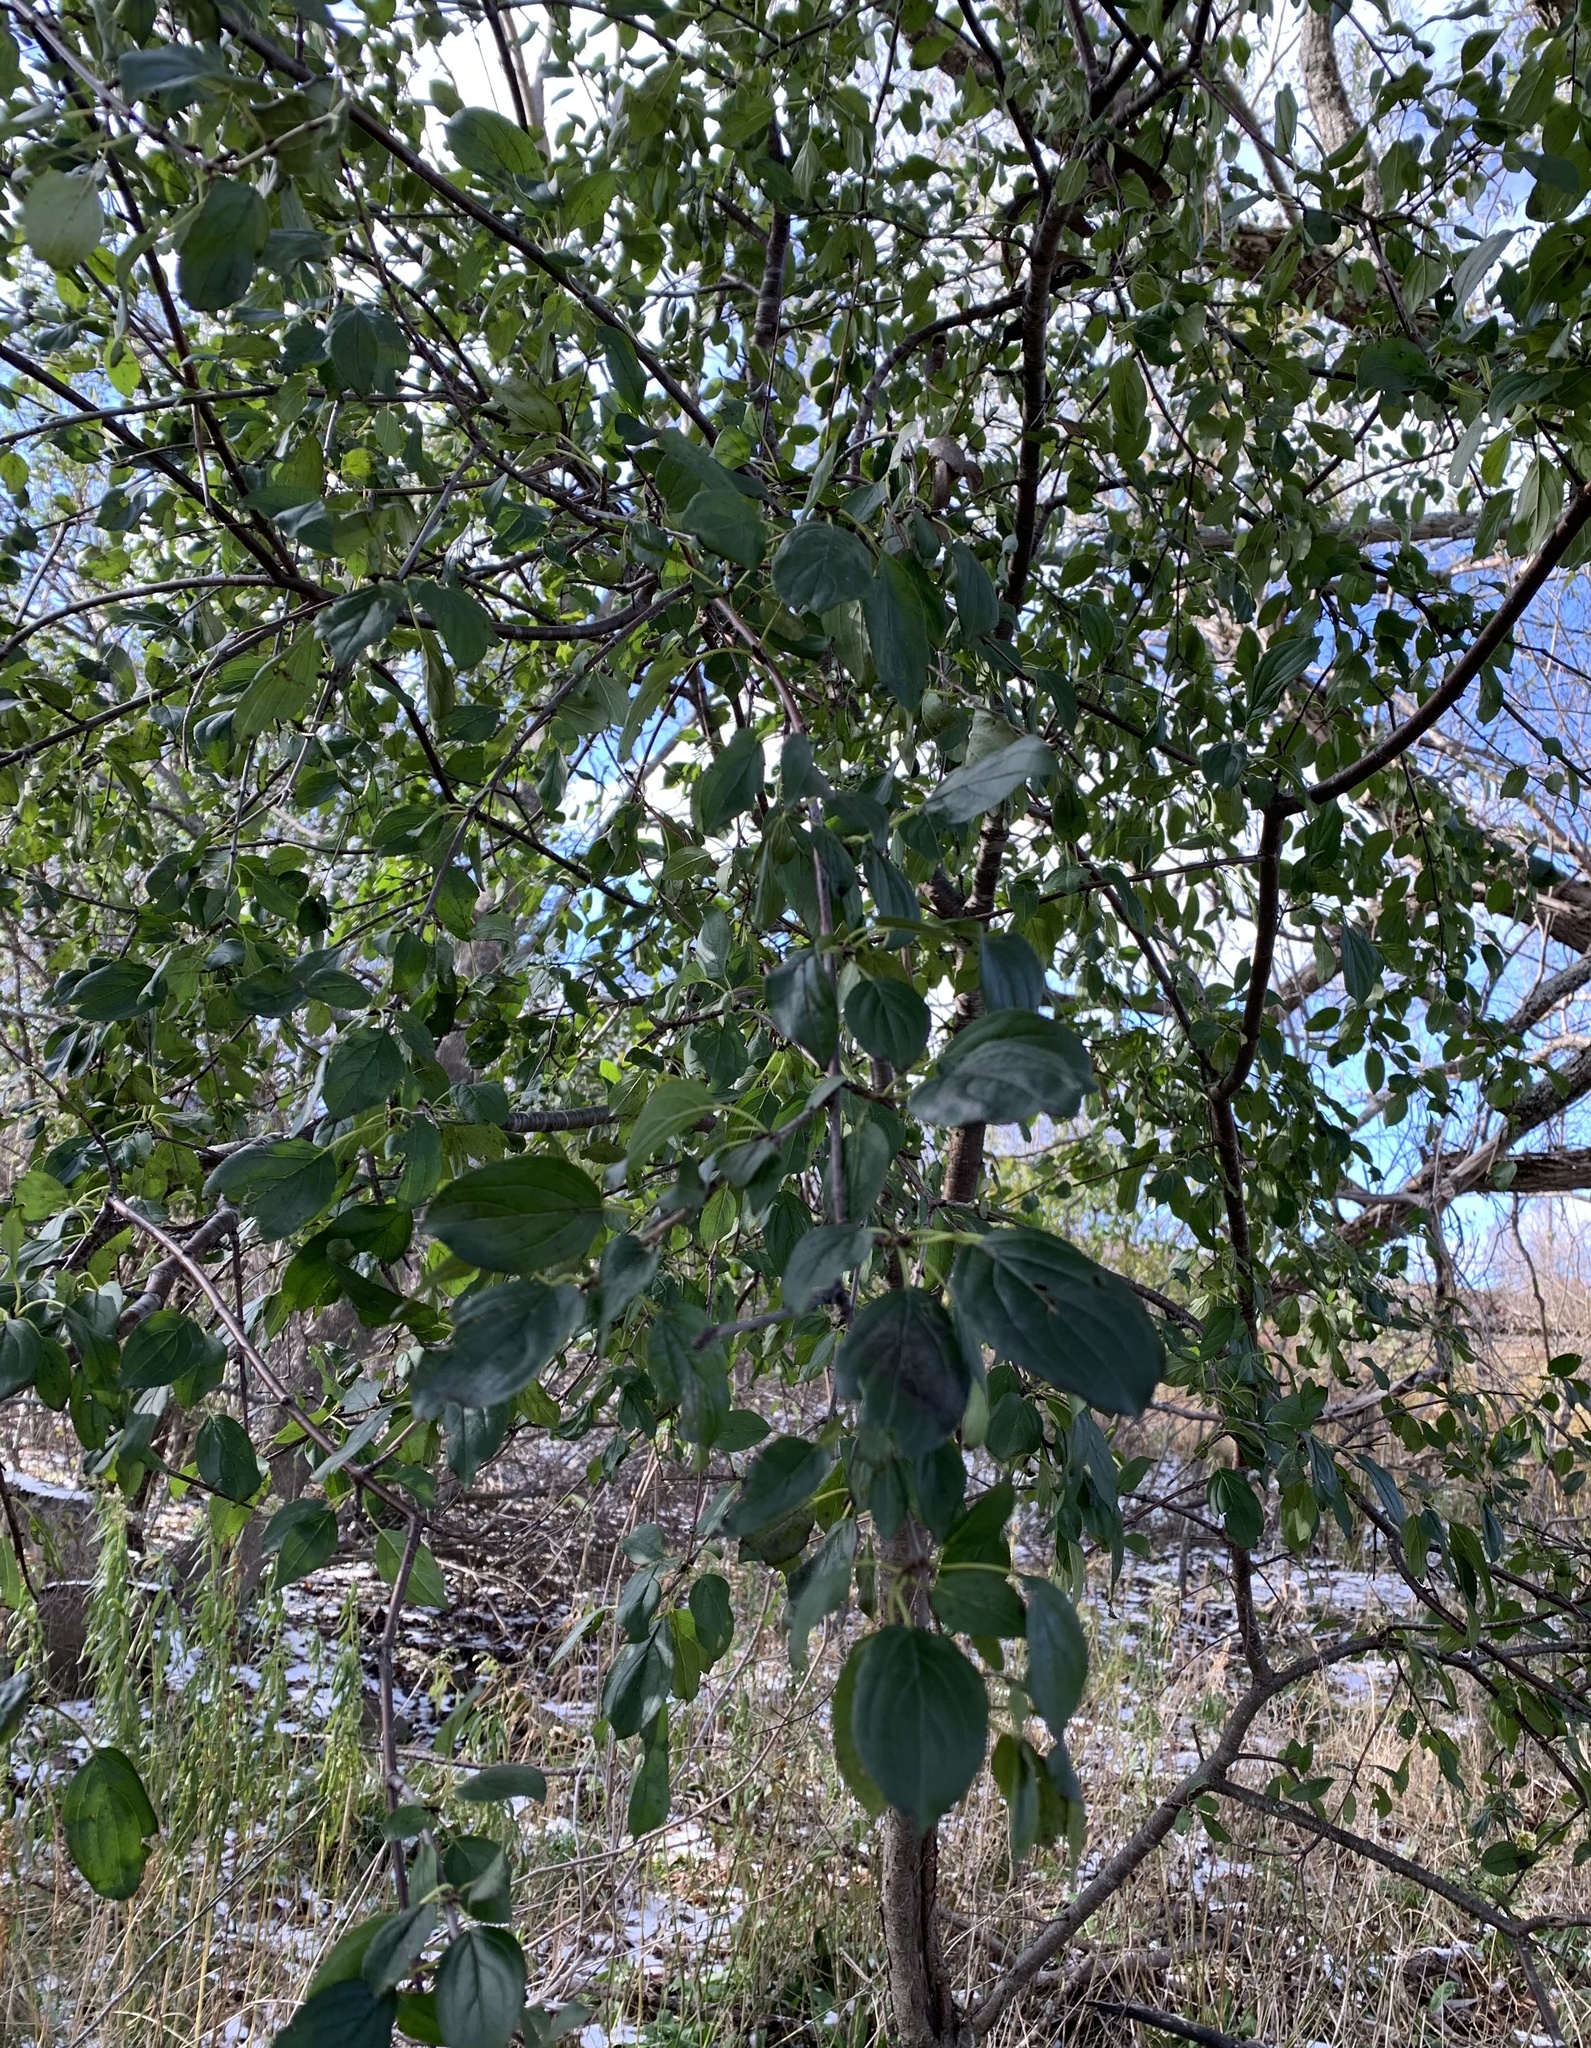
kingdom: Plantae
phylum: Tracheophyta
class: Magnoliopsida
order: Rosales
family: Rhamnaceae
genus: Rhamnus
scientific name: Rhamnus cathartica
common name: Common buckthorn
